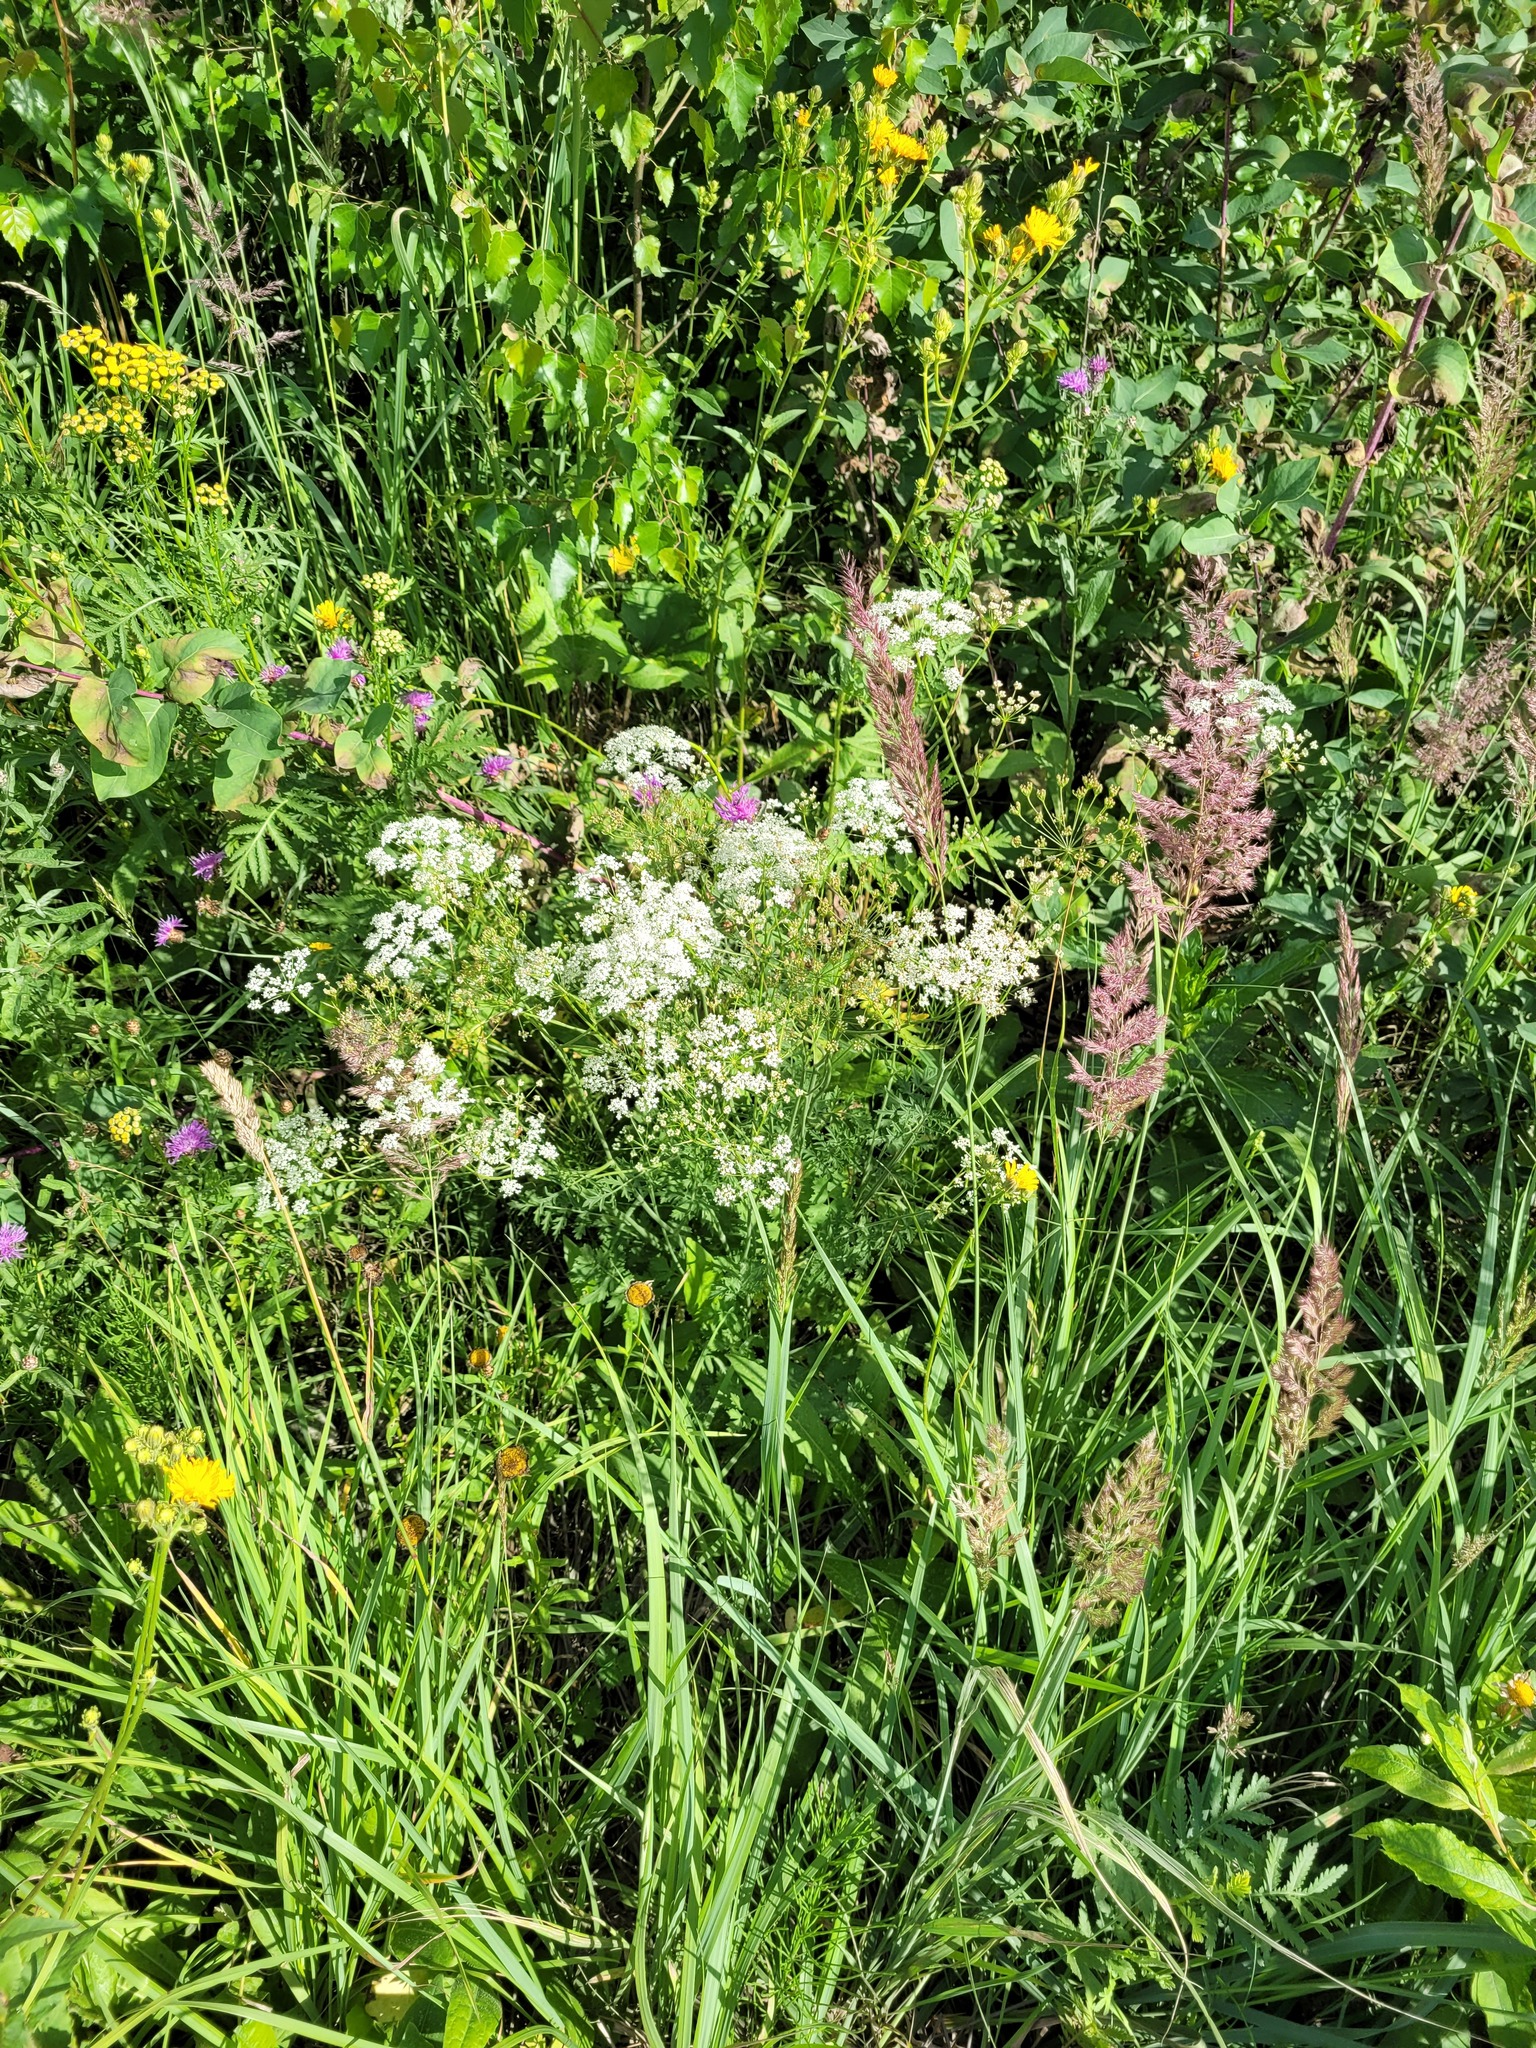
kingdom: Plantae
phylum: Tracheophyta
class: Magnoliopsida
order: Apiales
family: Apiaceae
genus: Pimpinella
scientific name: Pimpinella saxifraga
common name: Burnet-saxifrage
